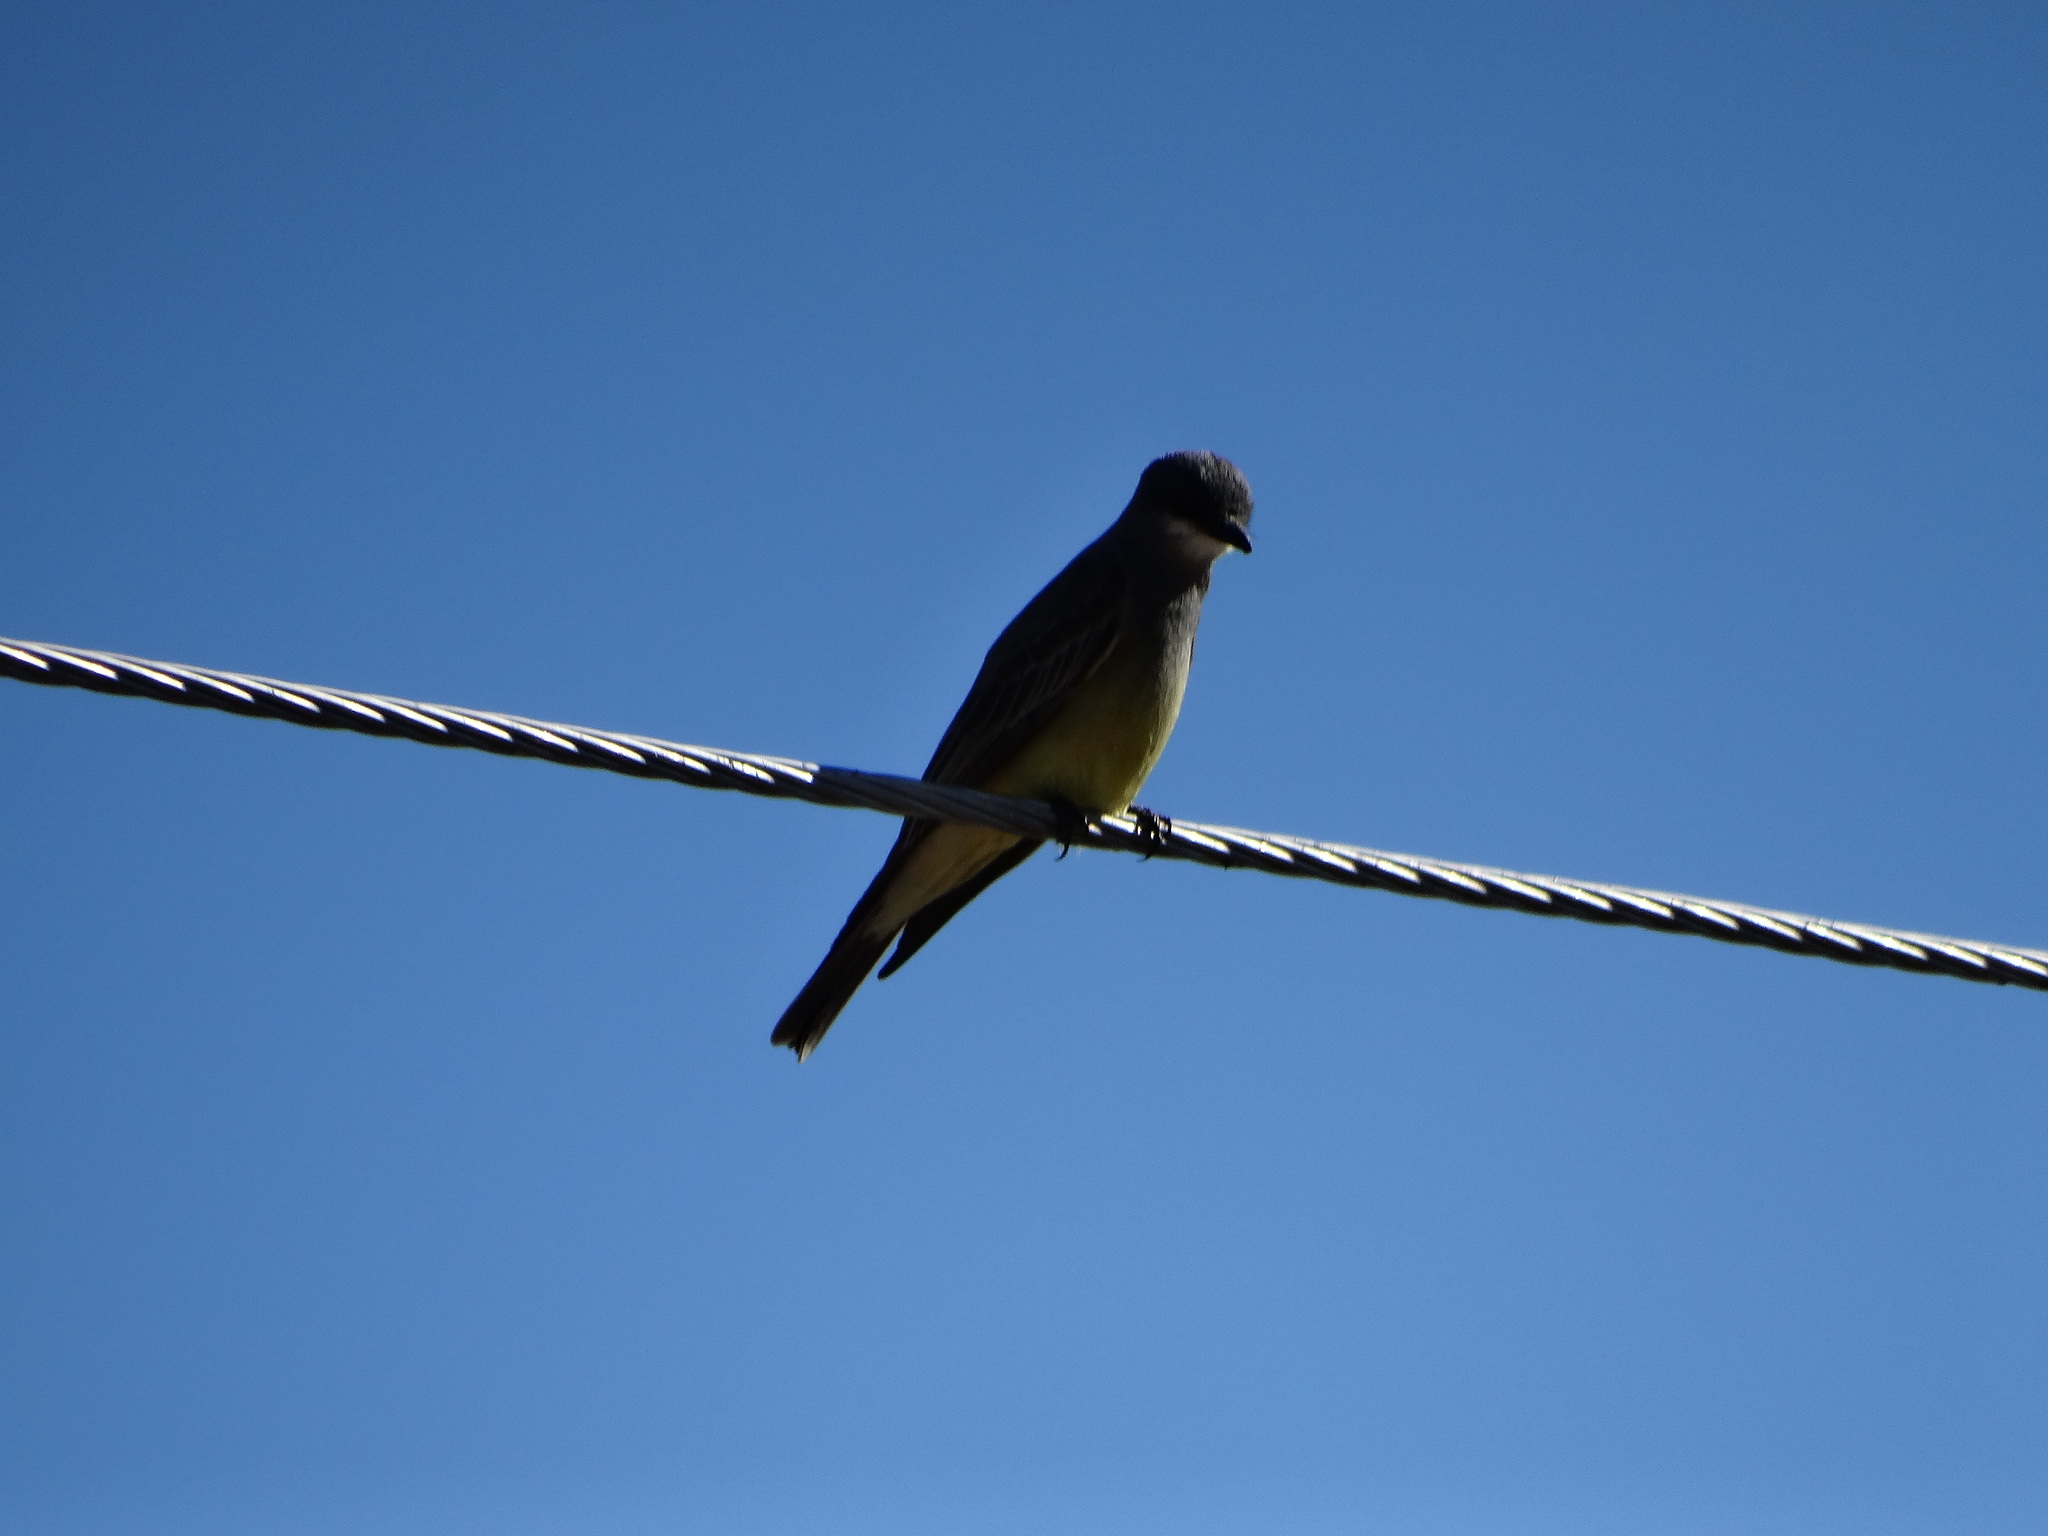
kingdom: Animalia
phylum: Chordata
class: Aves
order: Passeriformes
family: Tyrannidae
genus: Tyrannus
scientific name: Tyrannus vociferans
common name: Cassin's kingbird
